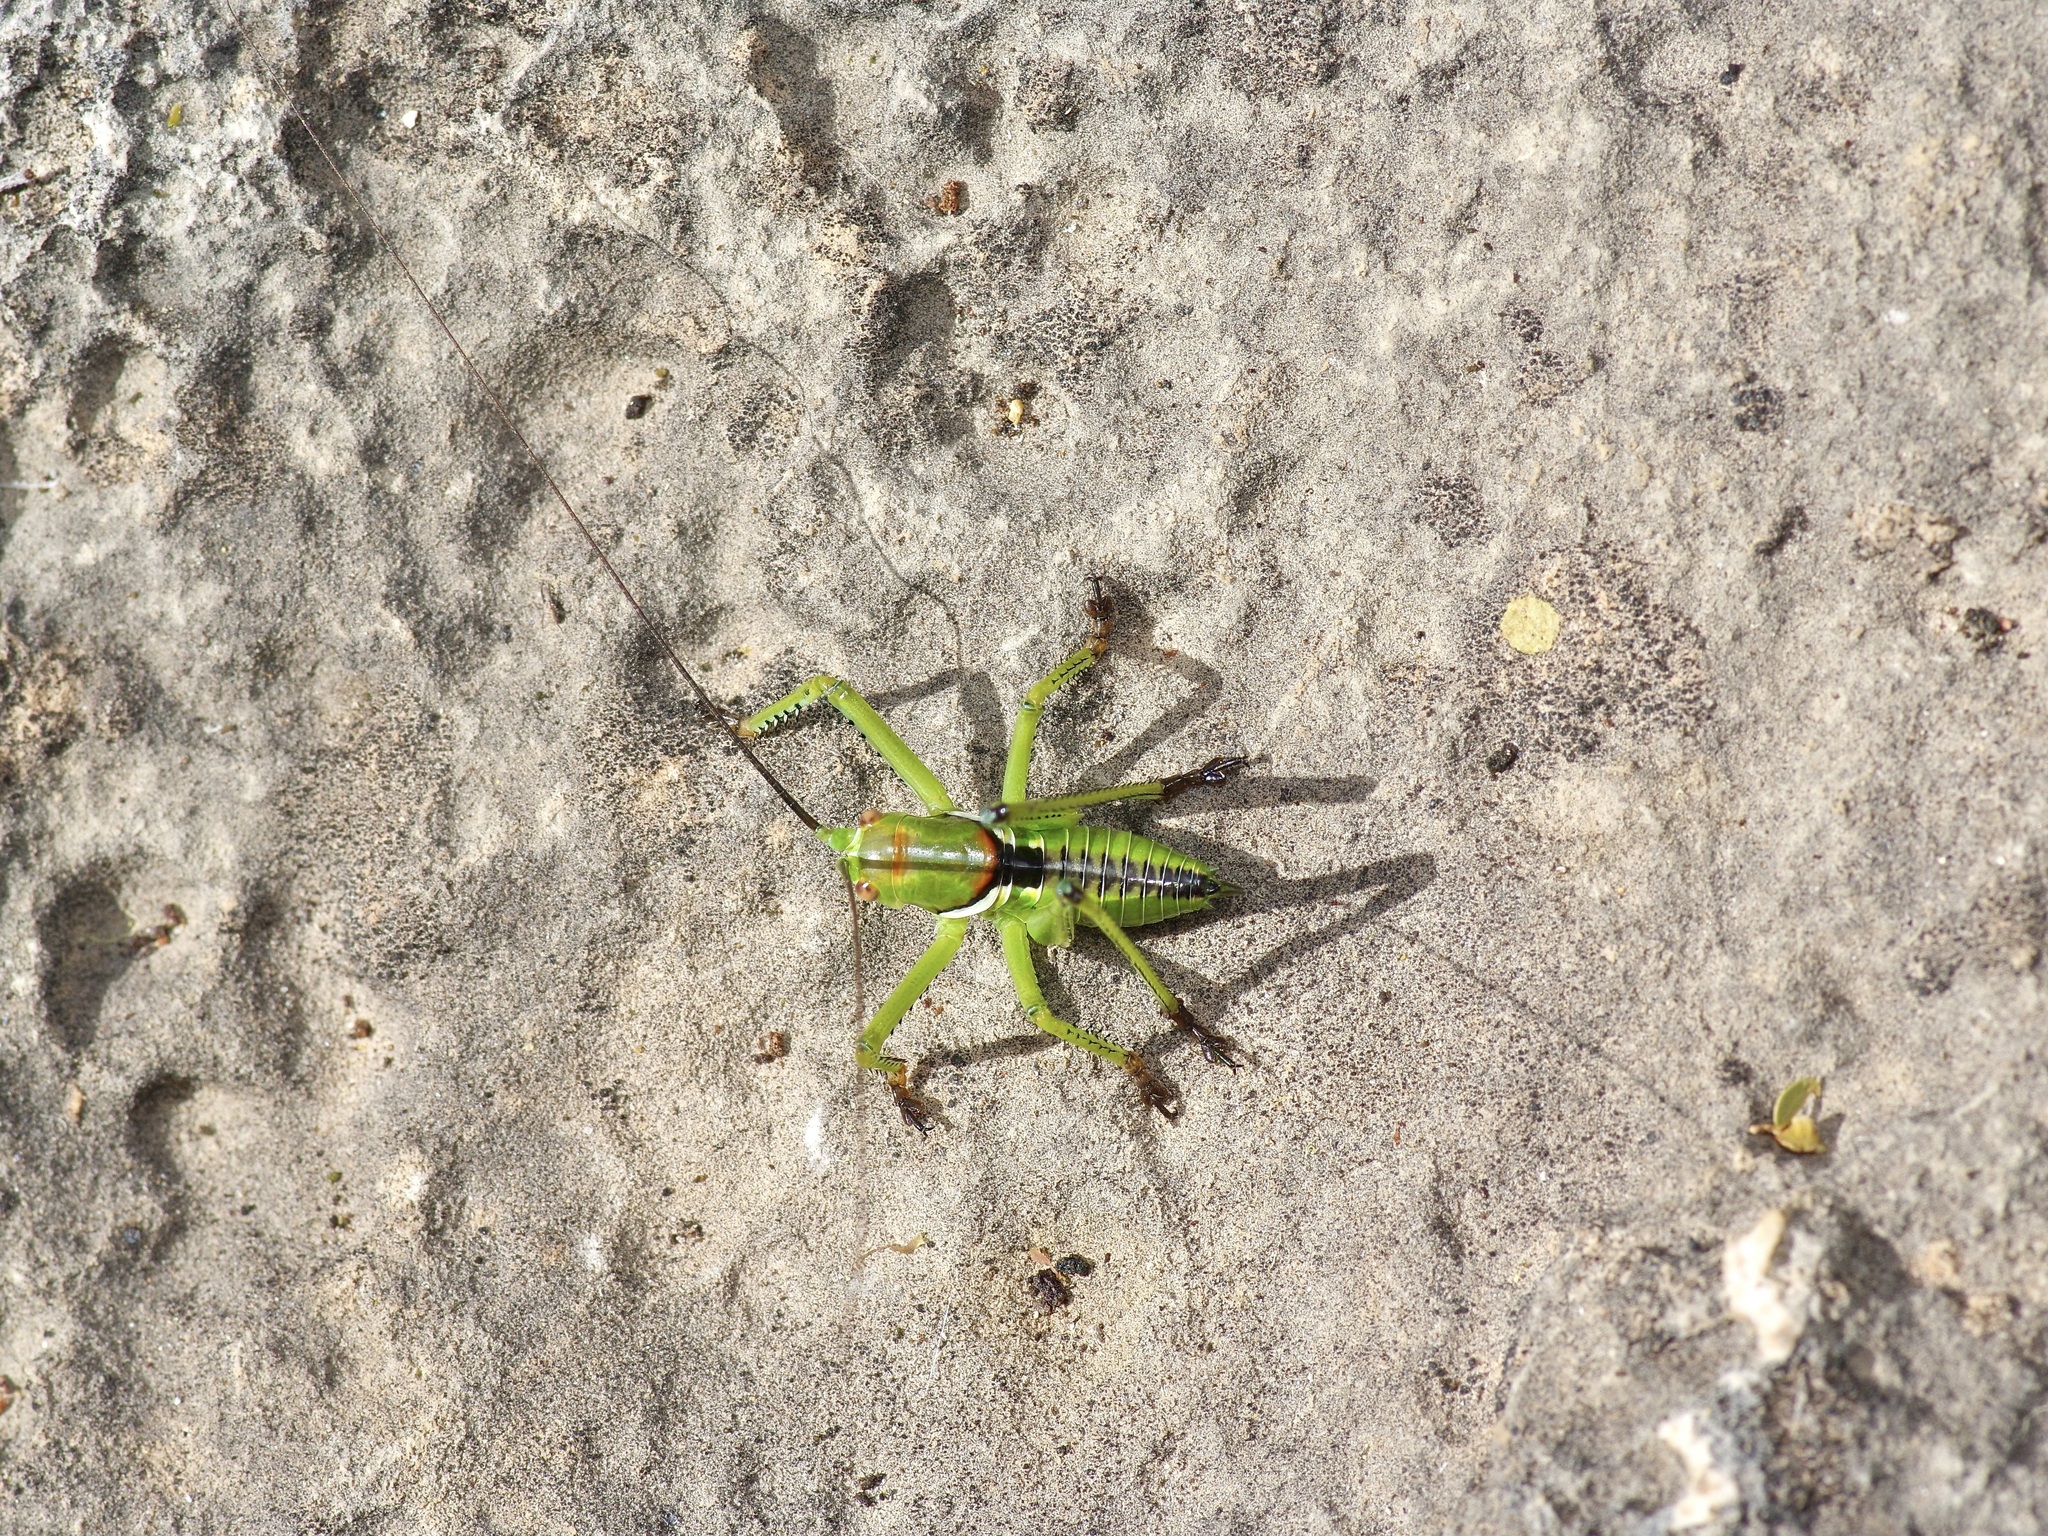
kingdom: Animalia
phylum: Arthropoda
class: Insecta
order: Orthoptera
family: Tettigoniidae
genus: Neobarrettia
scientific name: Neobarrettia spinosa
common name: Greater arid-land katydid
